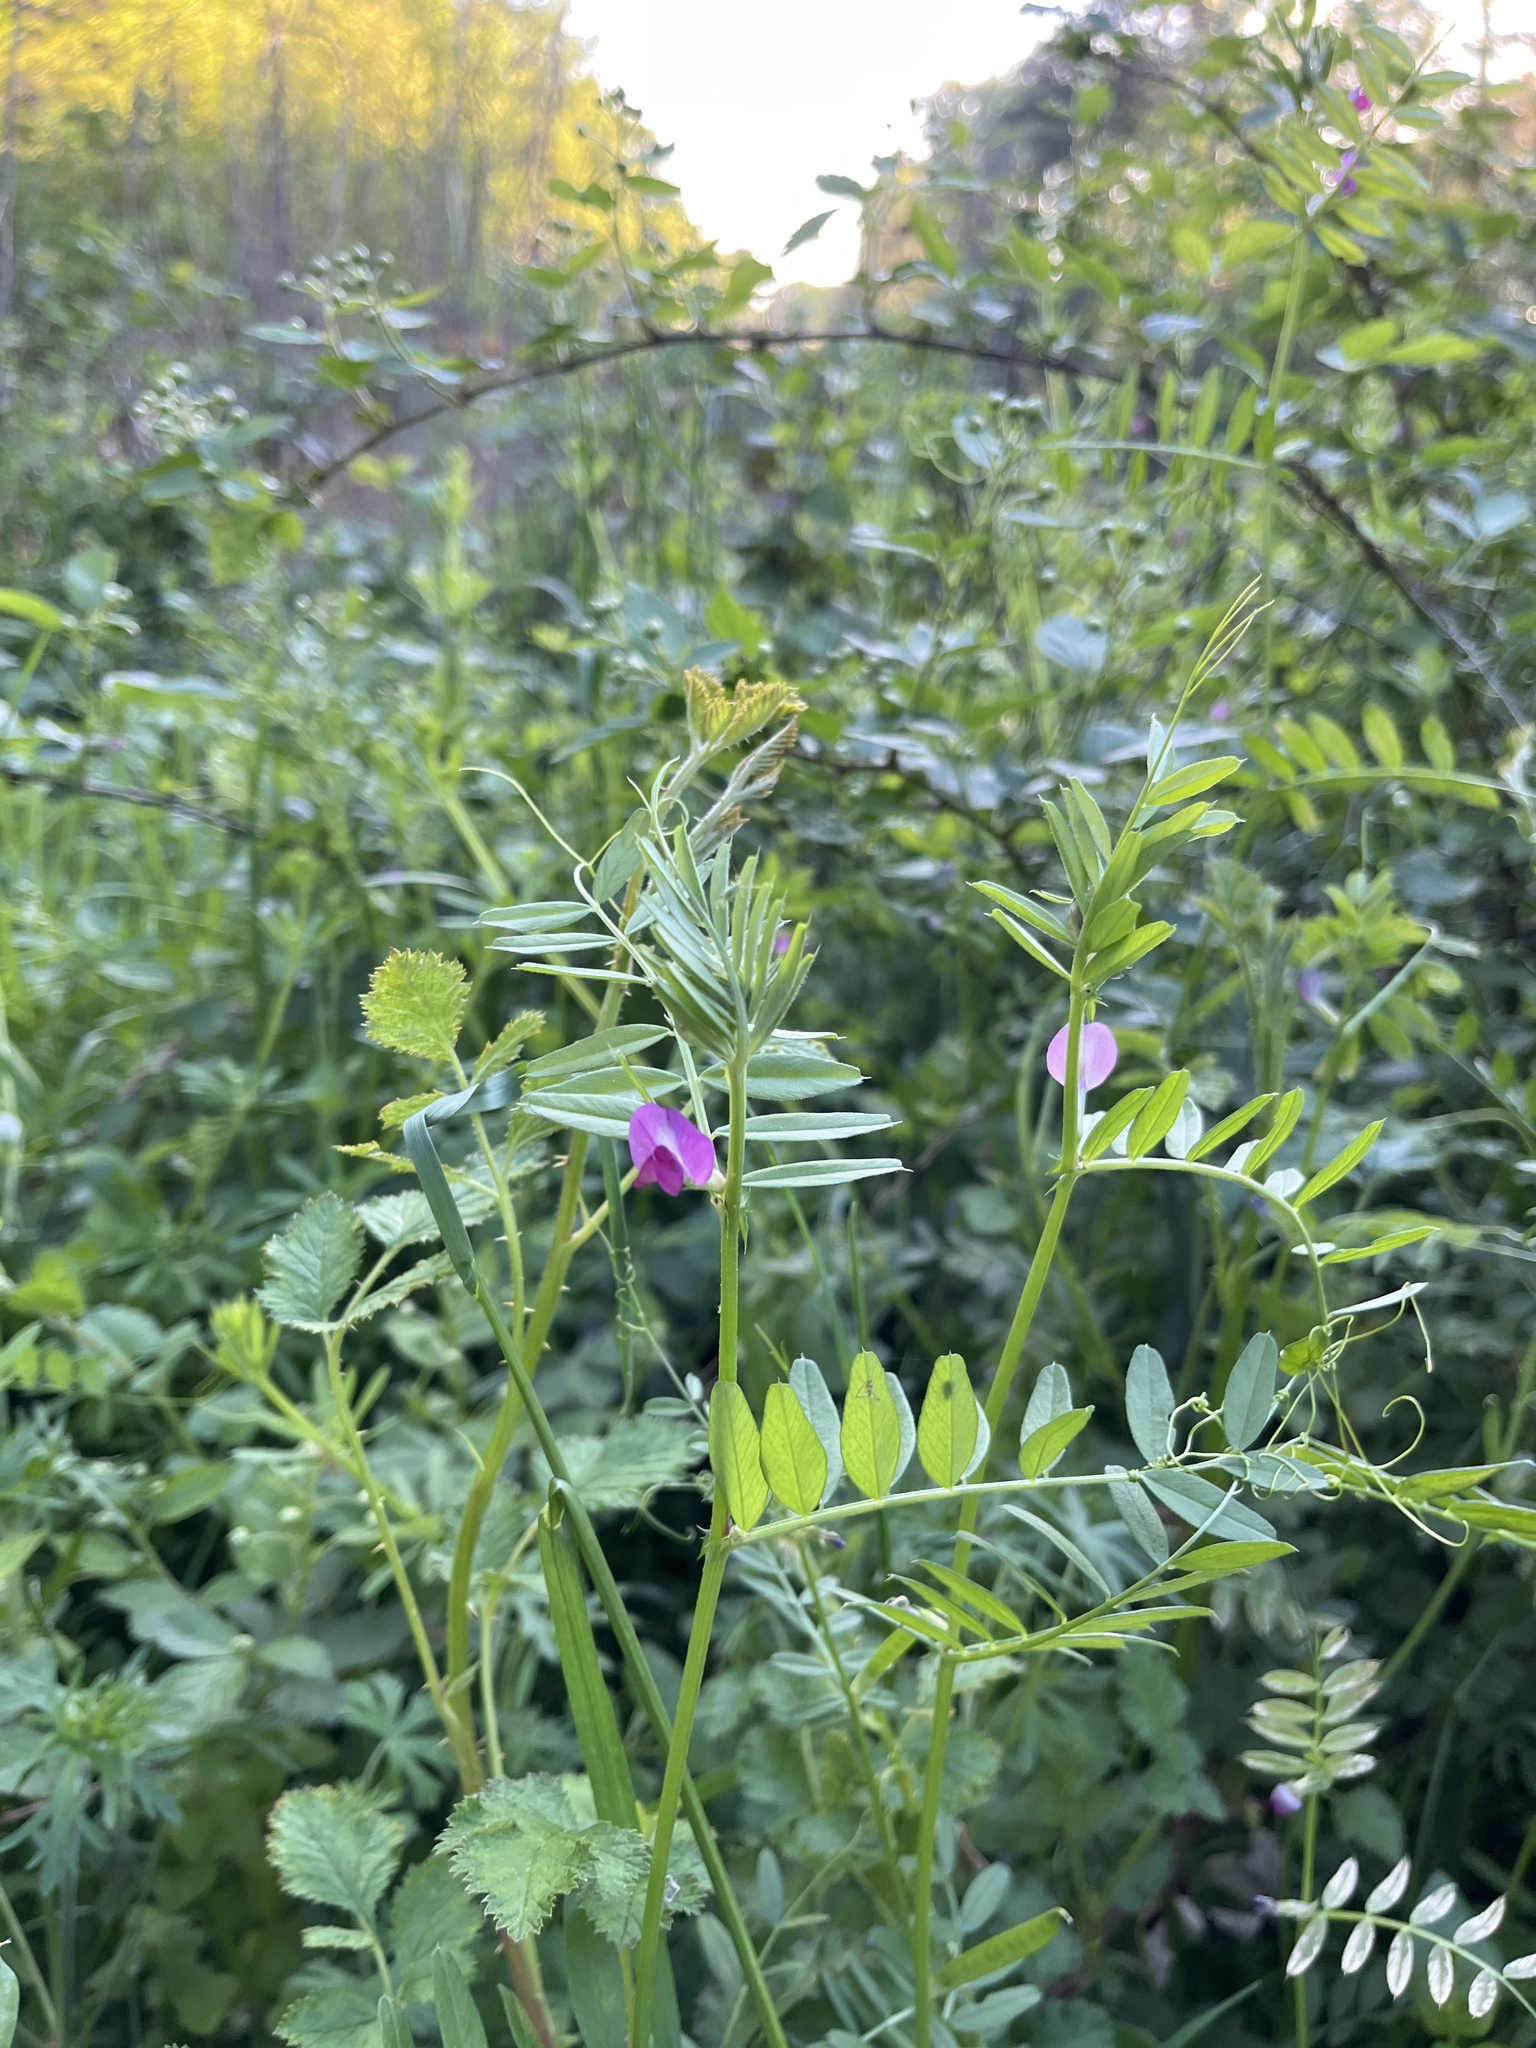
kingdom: Plantae
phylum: Tracheophyta
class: Magnoliopsida
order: Fabales
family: Fabaceae
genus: Vicia
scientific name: Vicia sativa
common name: Garden vetch
